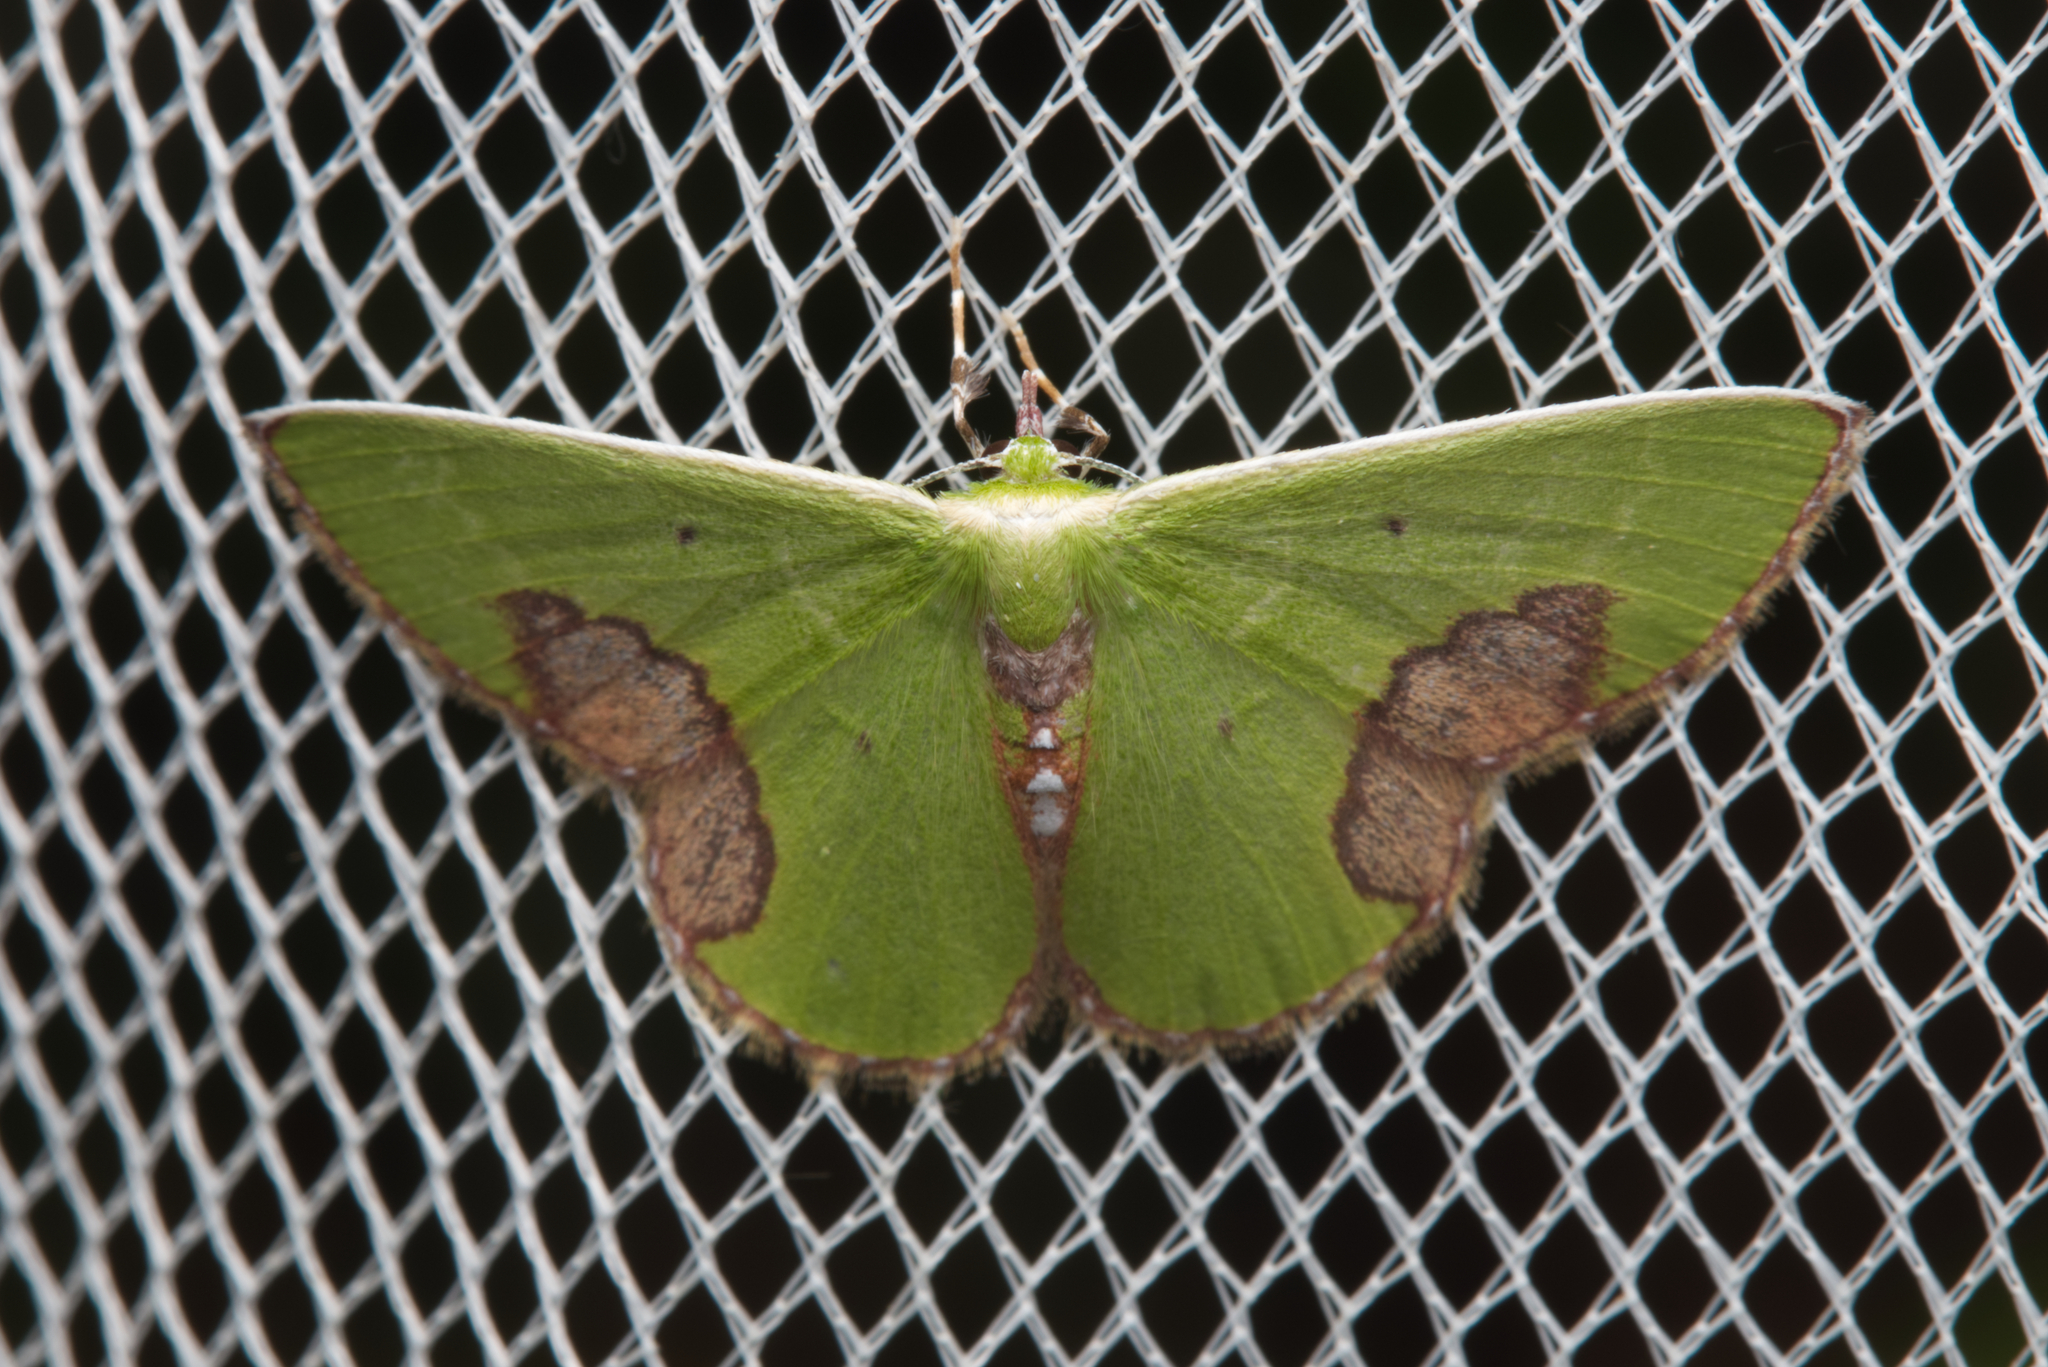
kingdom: Animalia
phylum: Arthropoda
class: Insecta
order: Lepidoptera
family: Geometridae
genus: Comibaena
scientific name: Comibaena mariae
